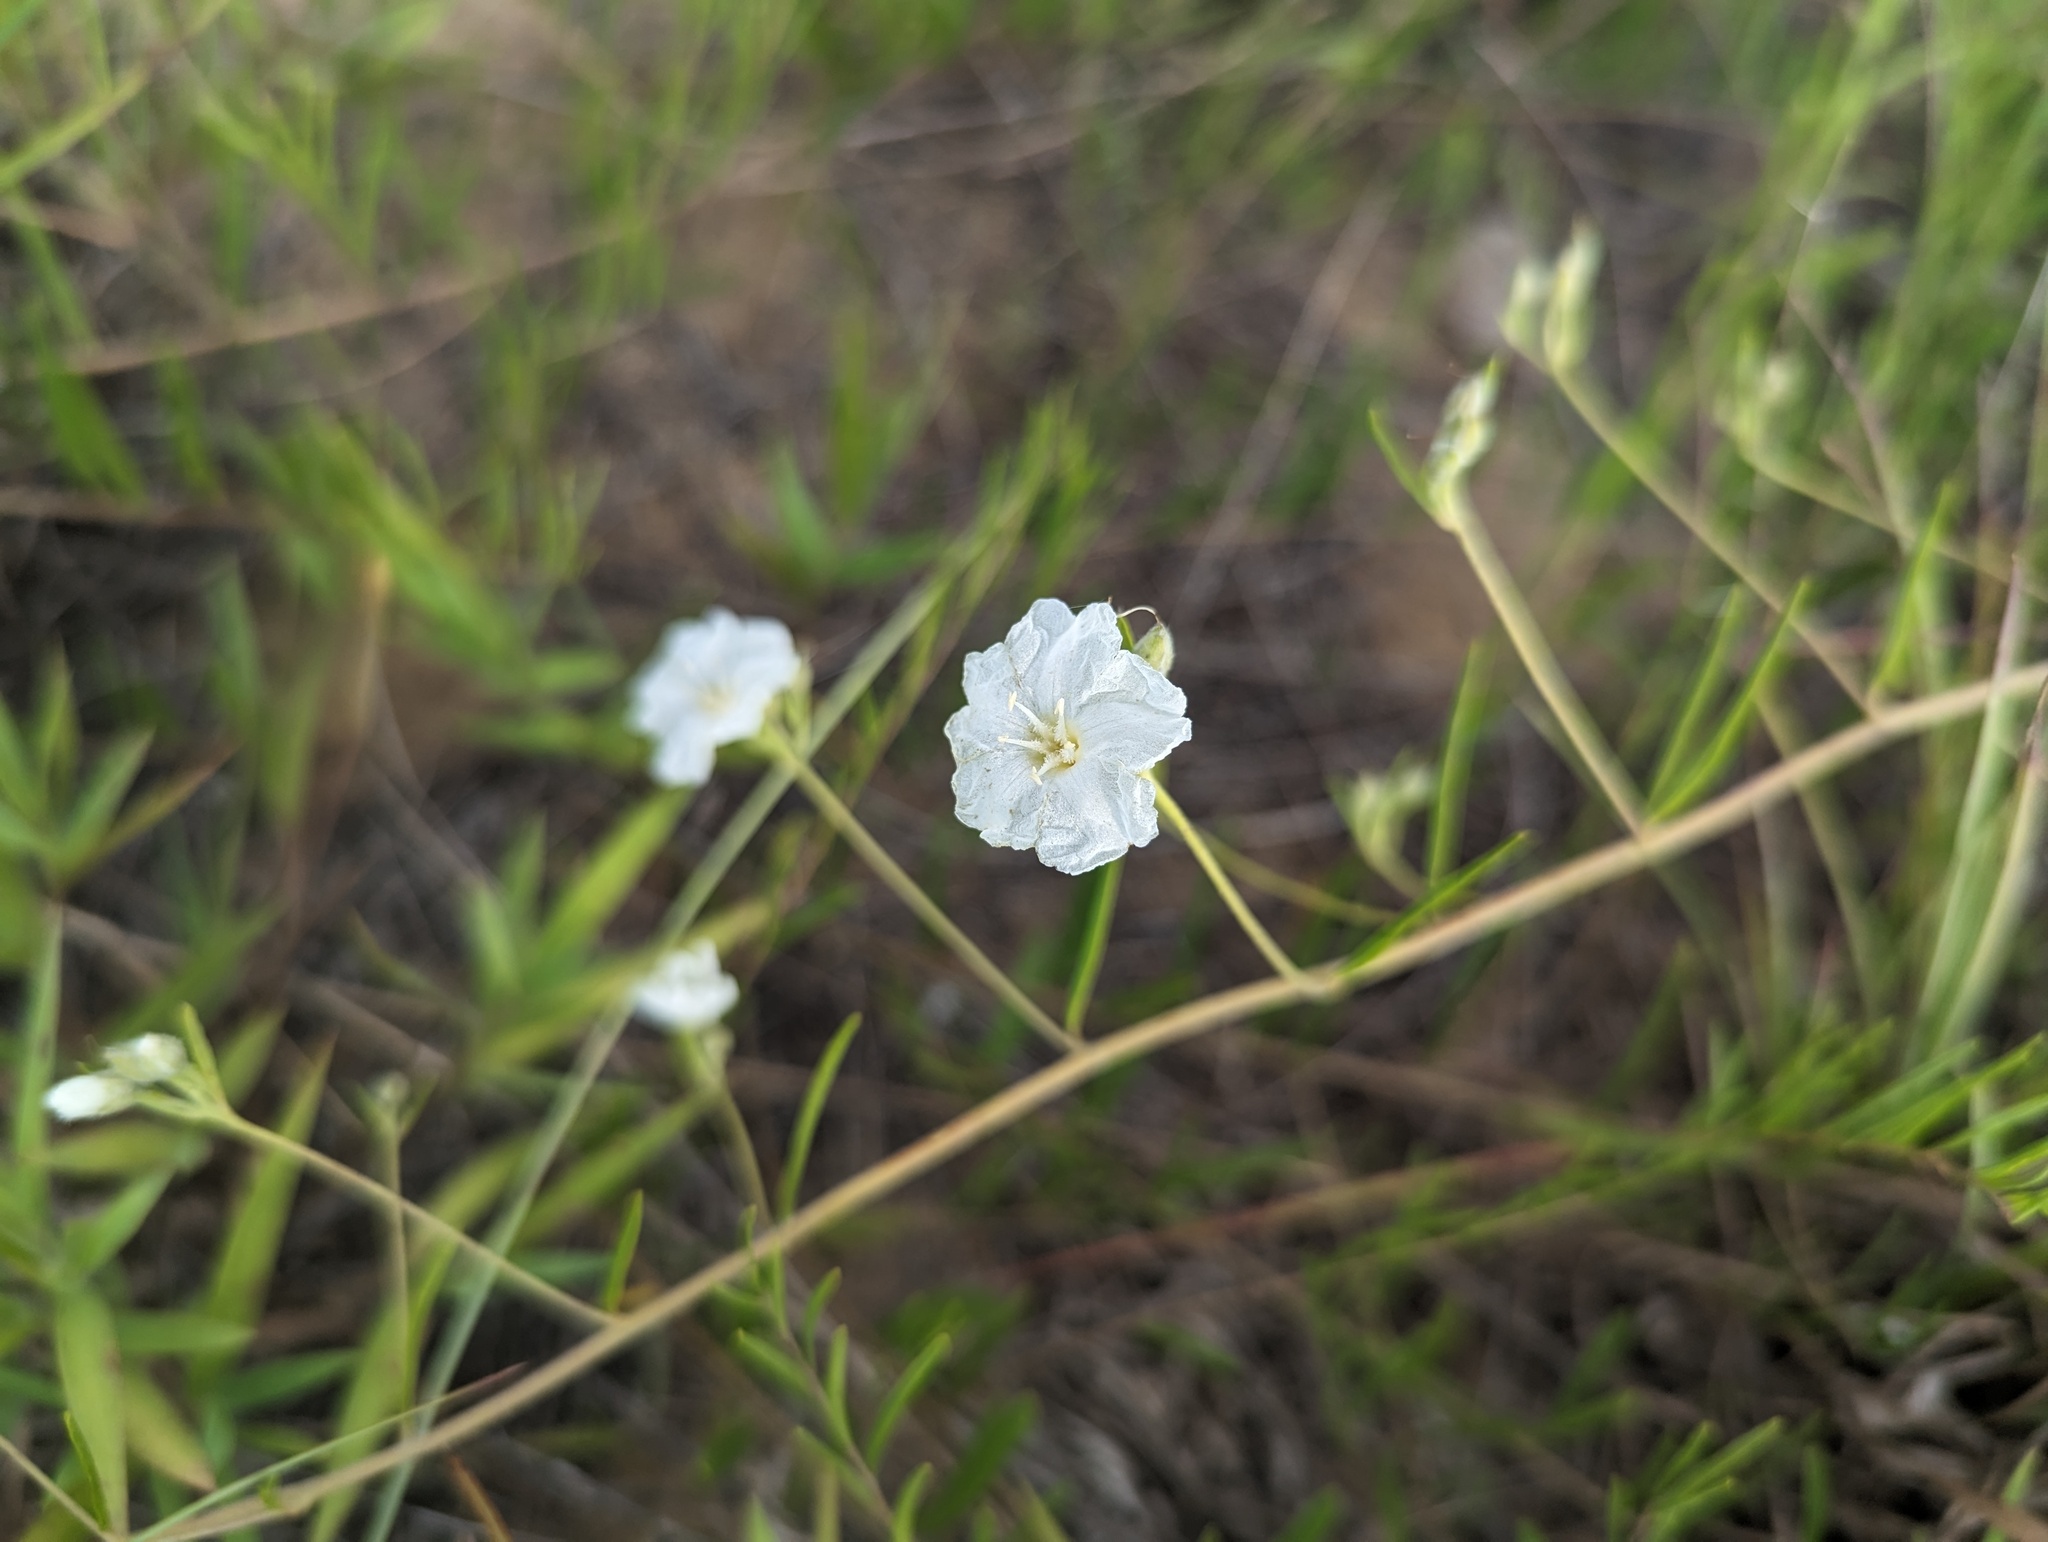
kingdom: Plantae
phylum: Tracheophyta
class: Magnoliopsida
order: Solanales
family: Convolvulaceae
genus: Stylisma
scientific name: Stylisma pickeringii
